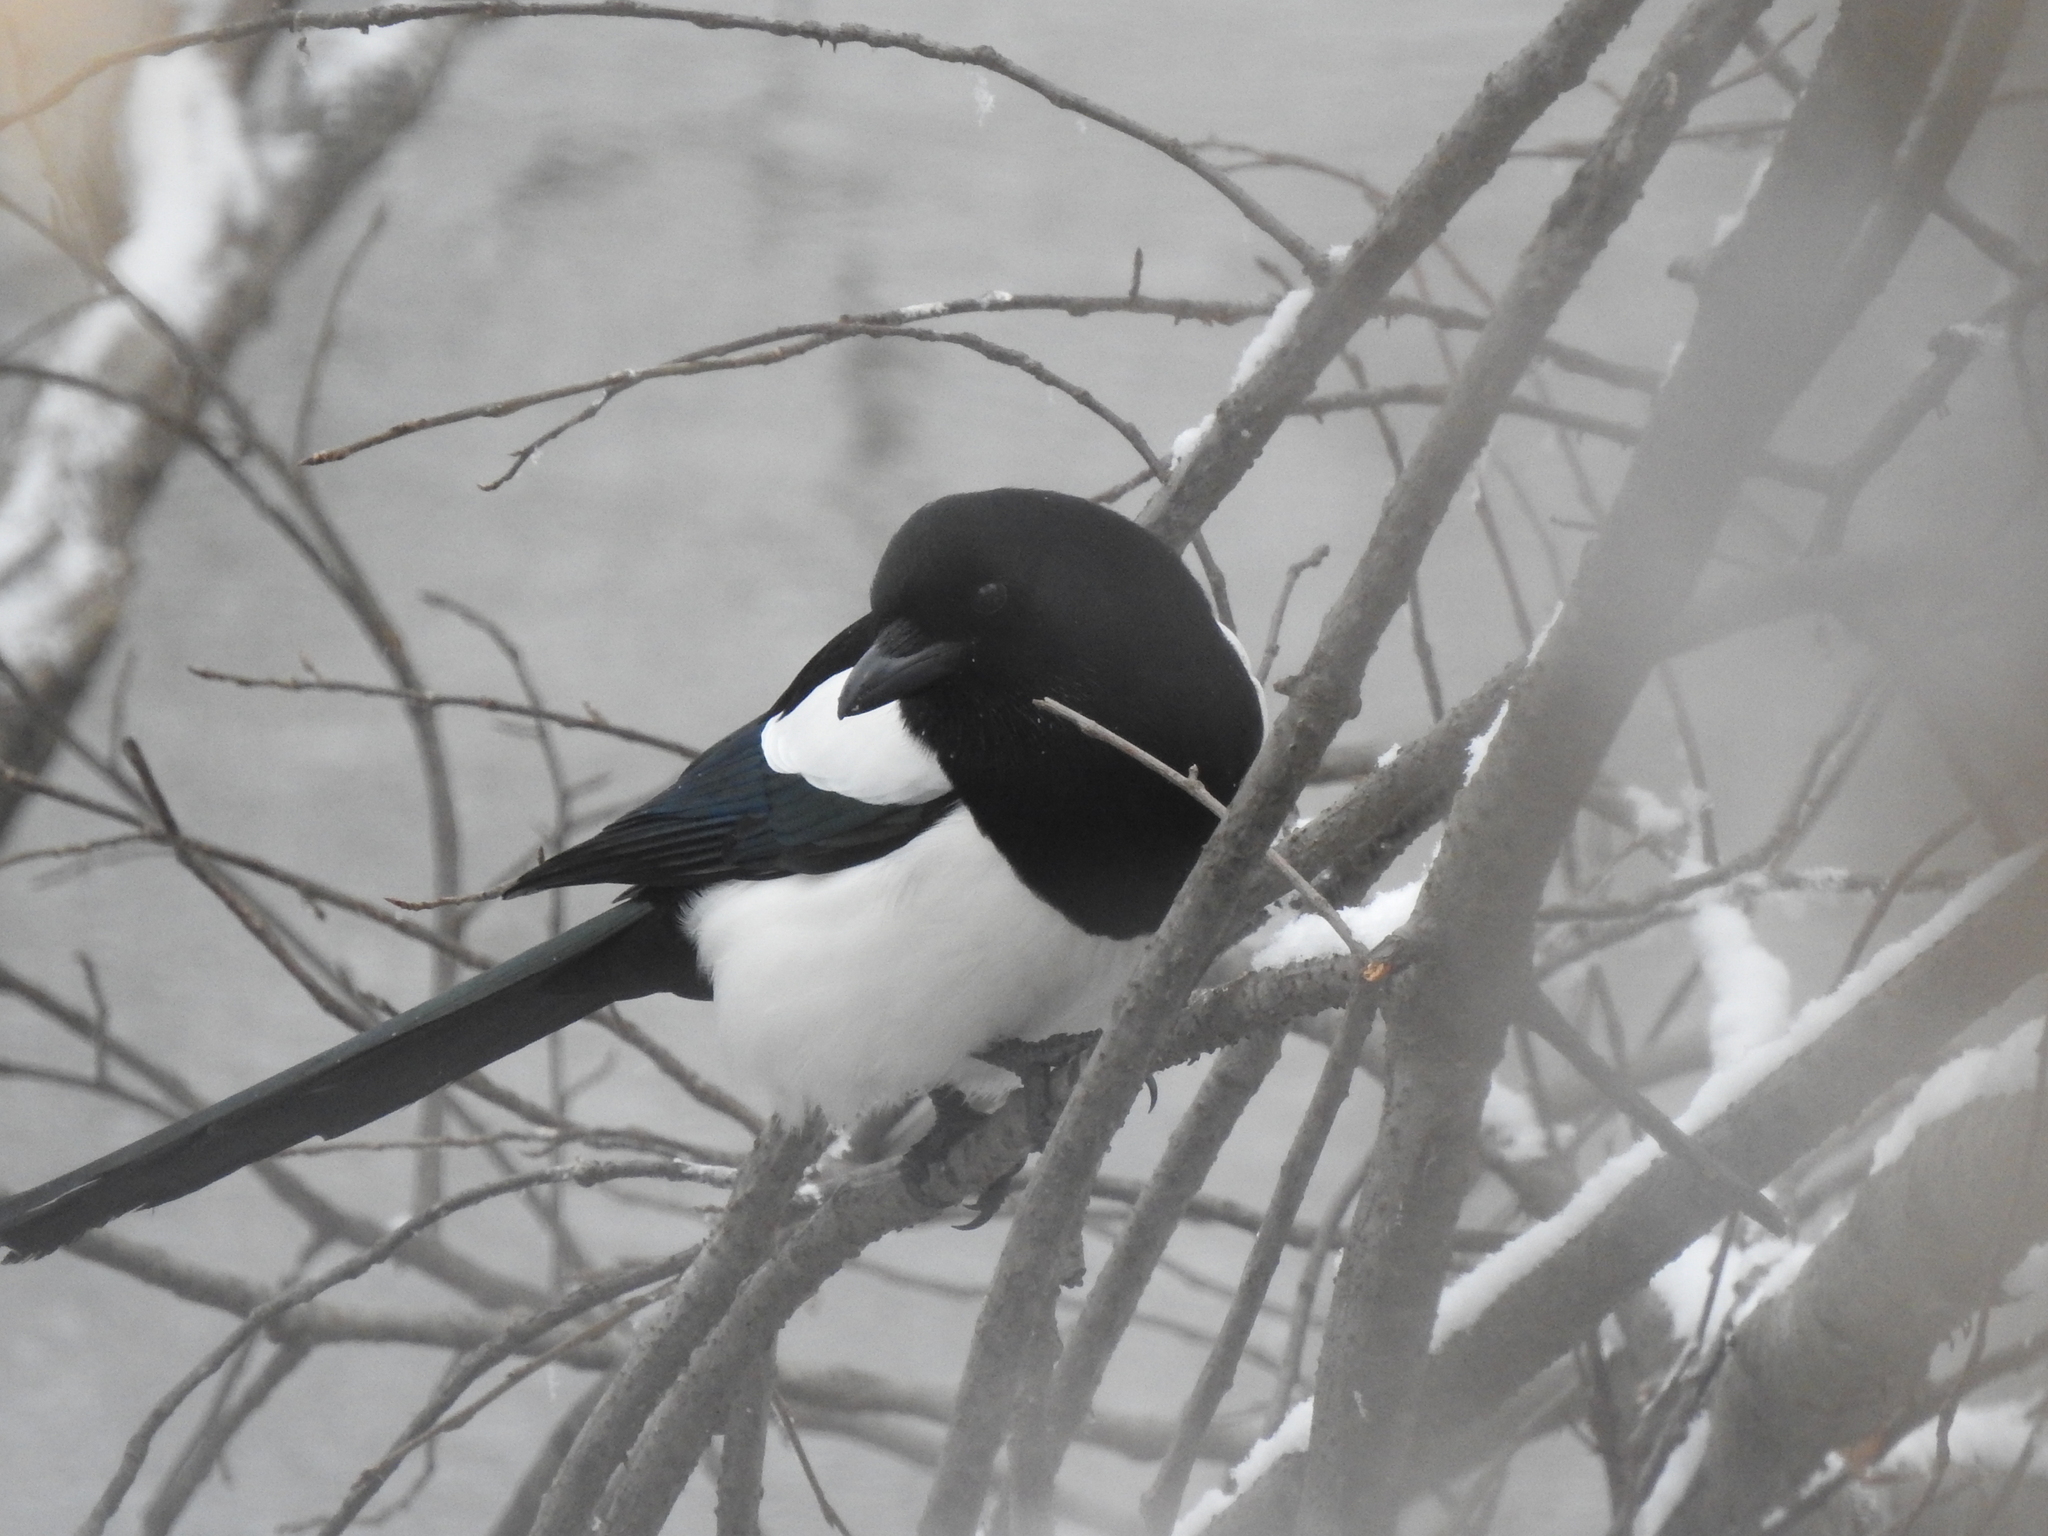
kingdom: Animalia
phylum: Chordata
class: Aves
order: Passeriformes
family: Corvidae
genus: Pica
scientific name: Pica pica
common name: Eurasian magpie
